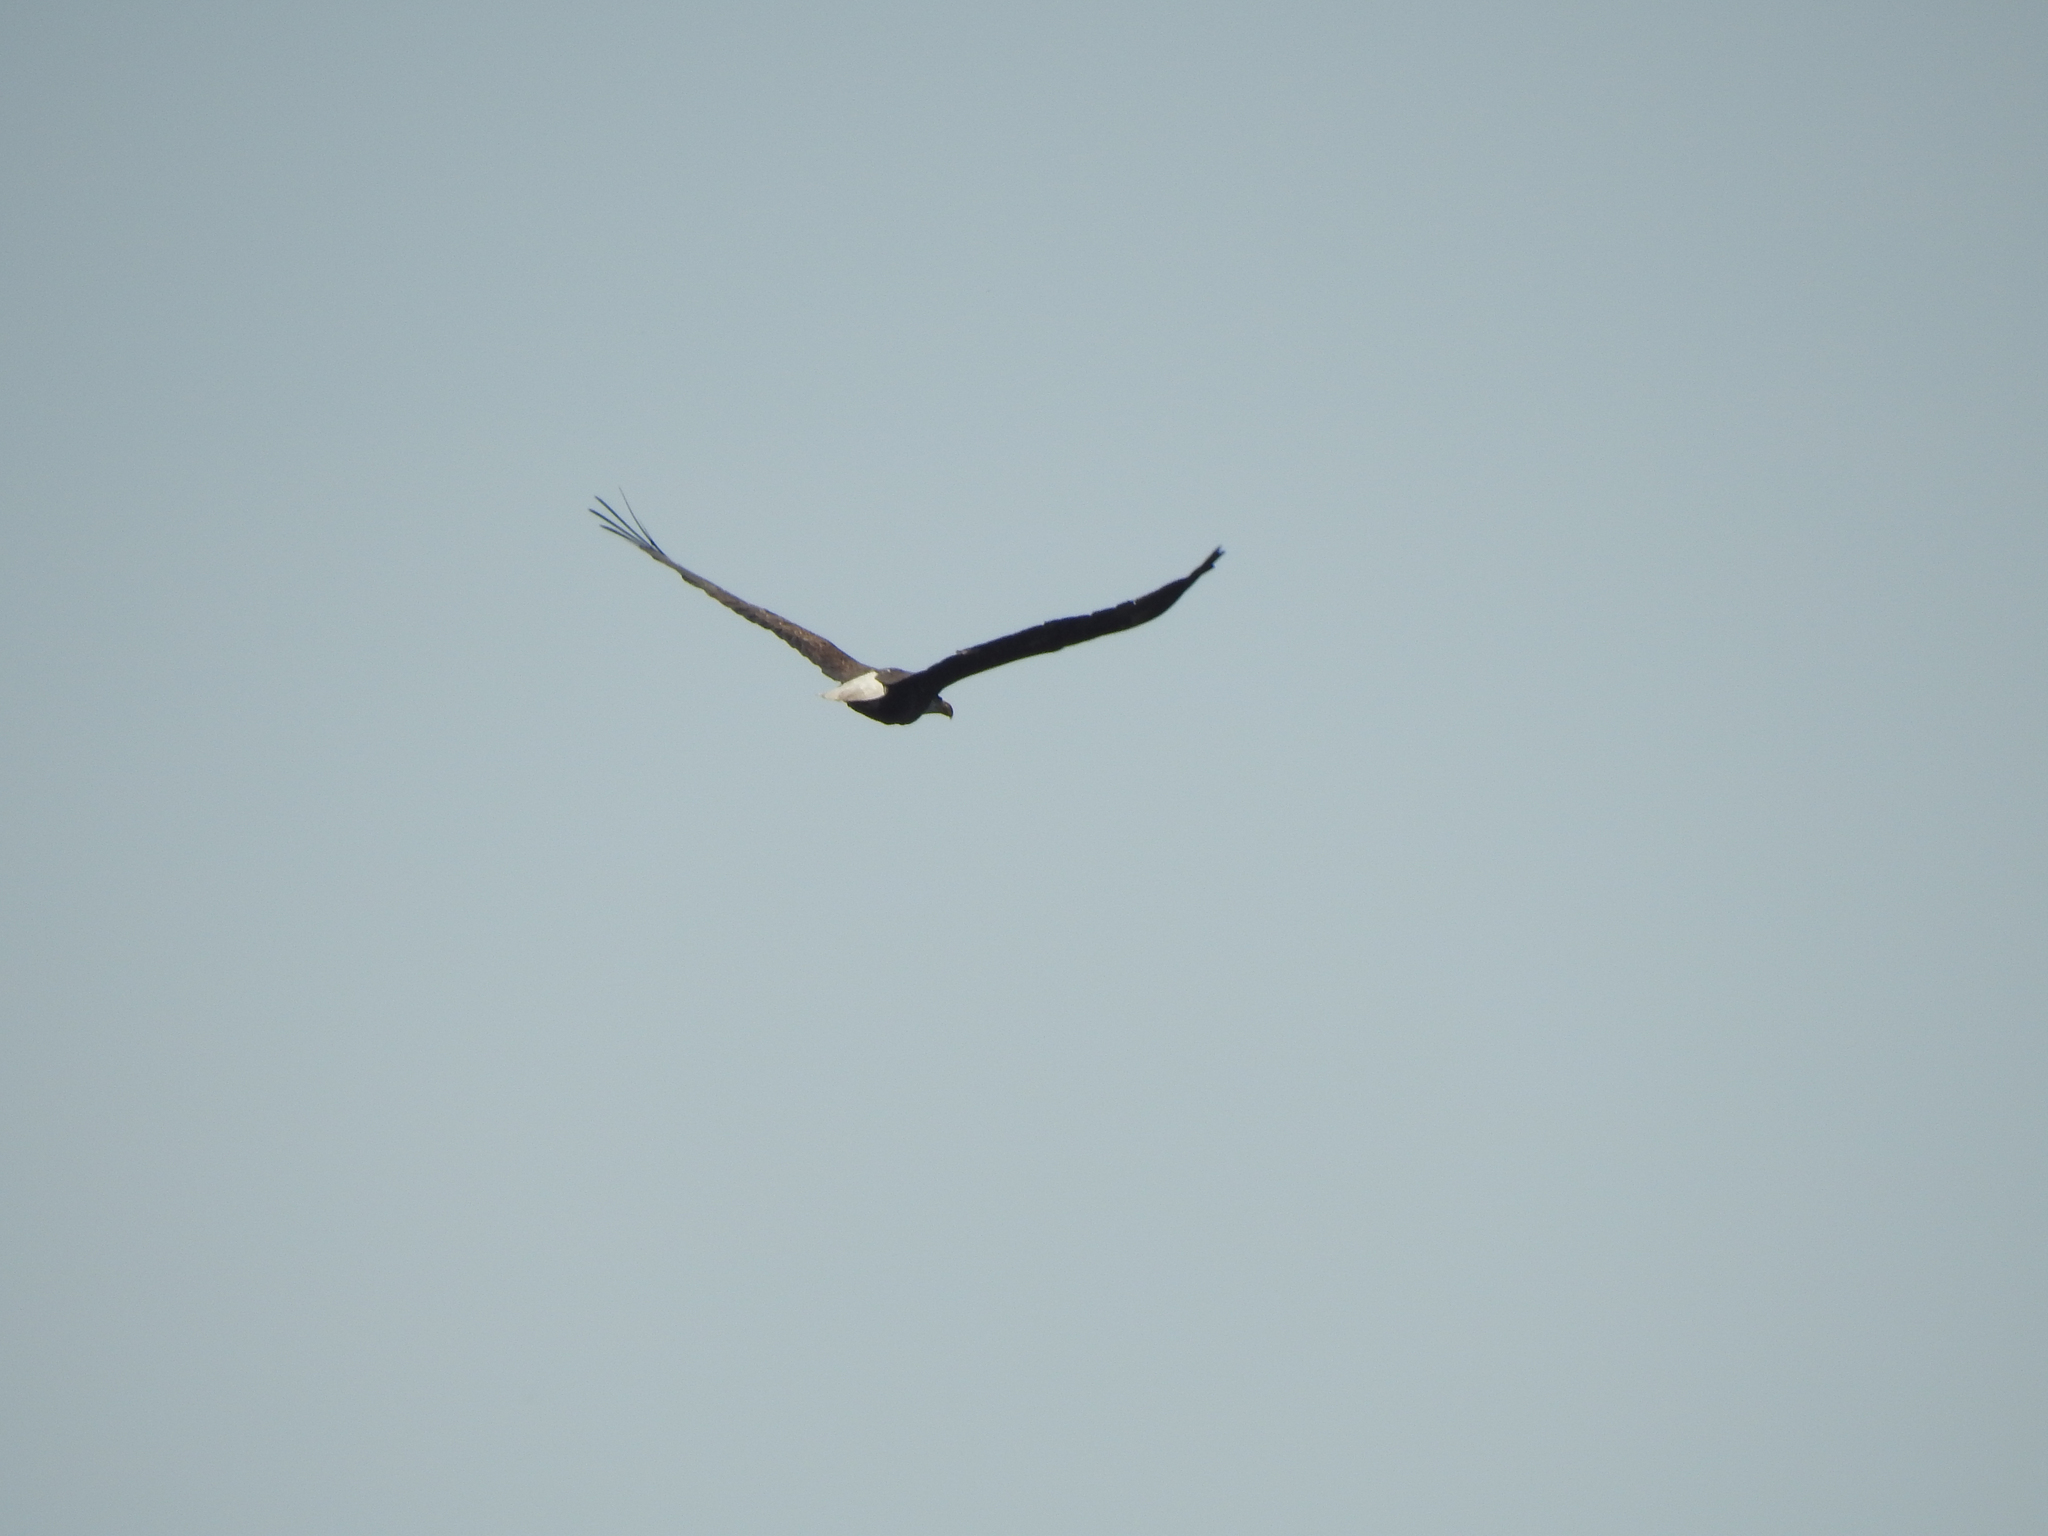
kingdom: Animalia
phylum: Chordata
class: Aves
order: Accipitriformes
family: Accipitridae
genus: Haliaeetus
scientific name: Haliaeetus leucocephalus
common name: Bald eagle
